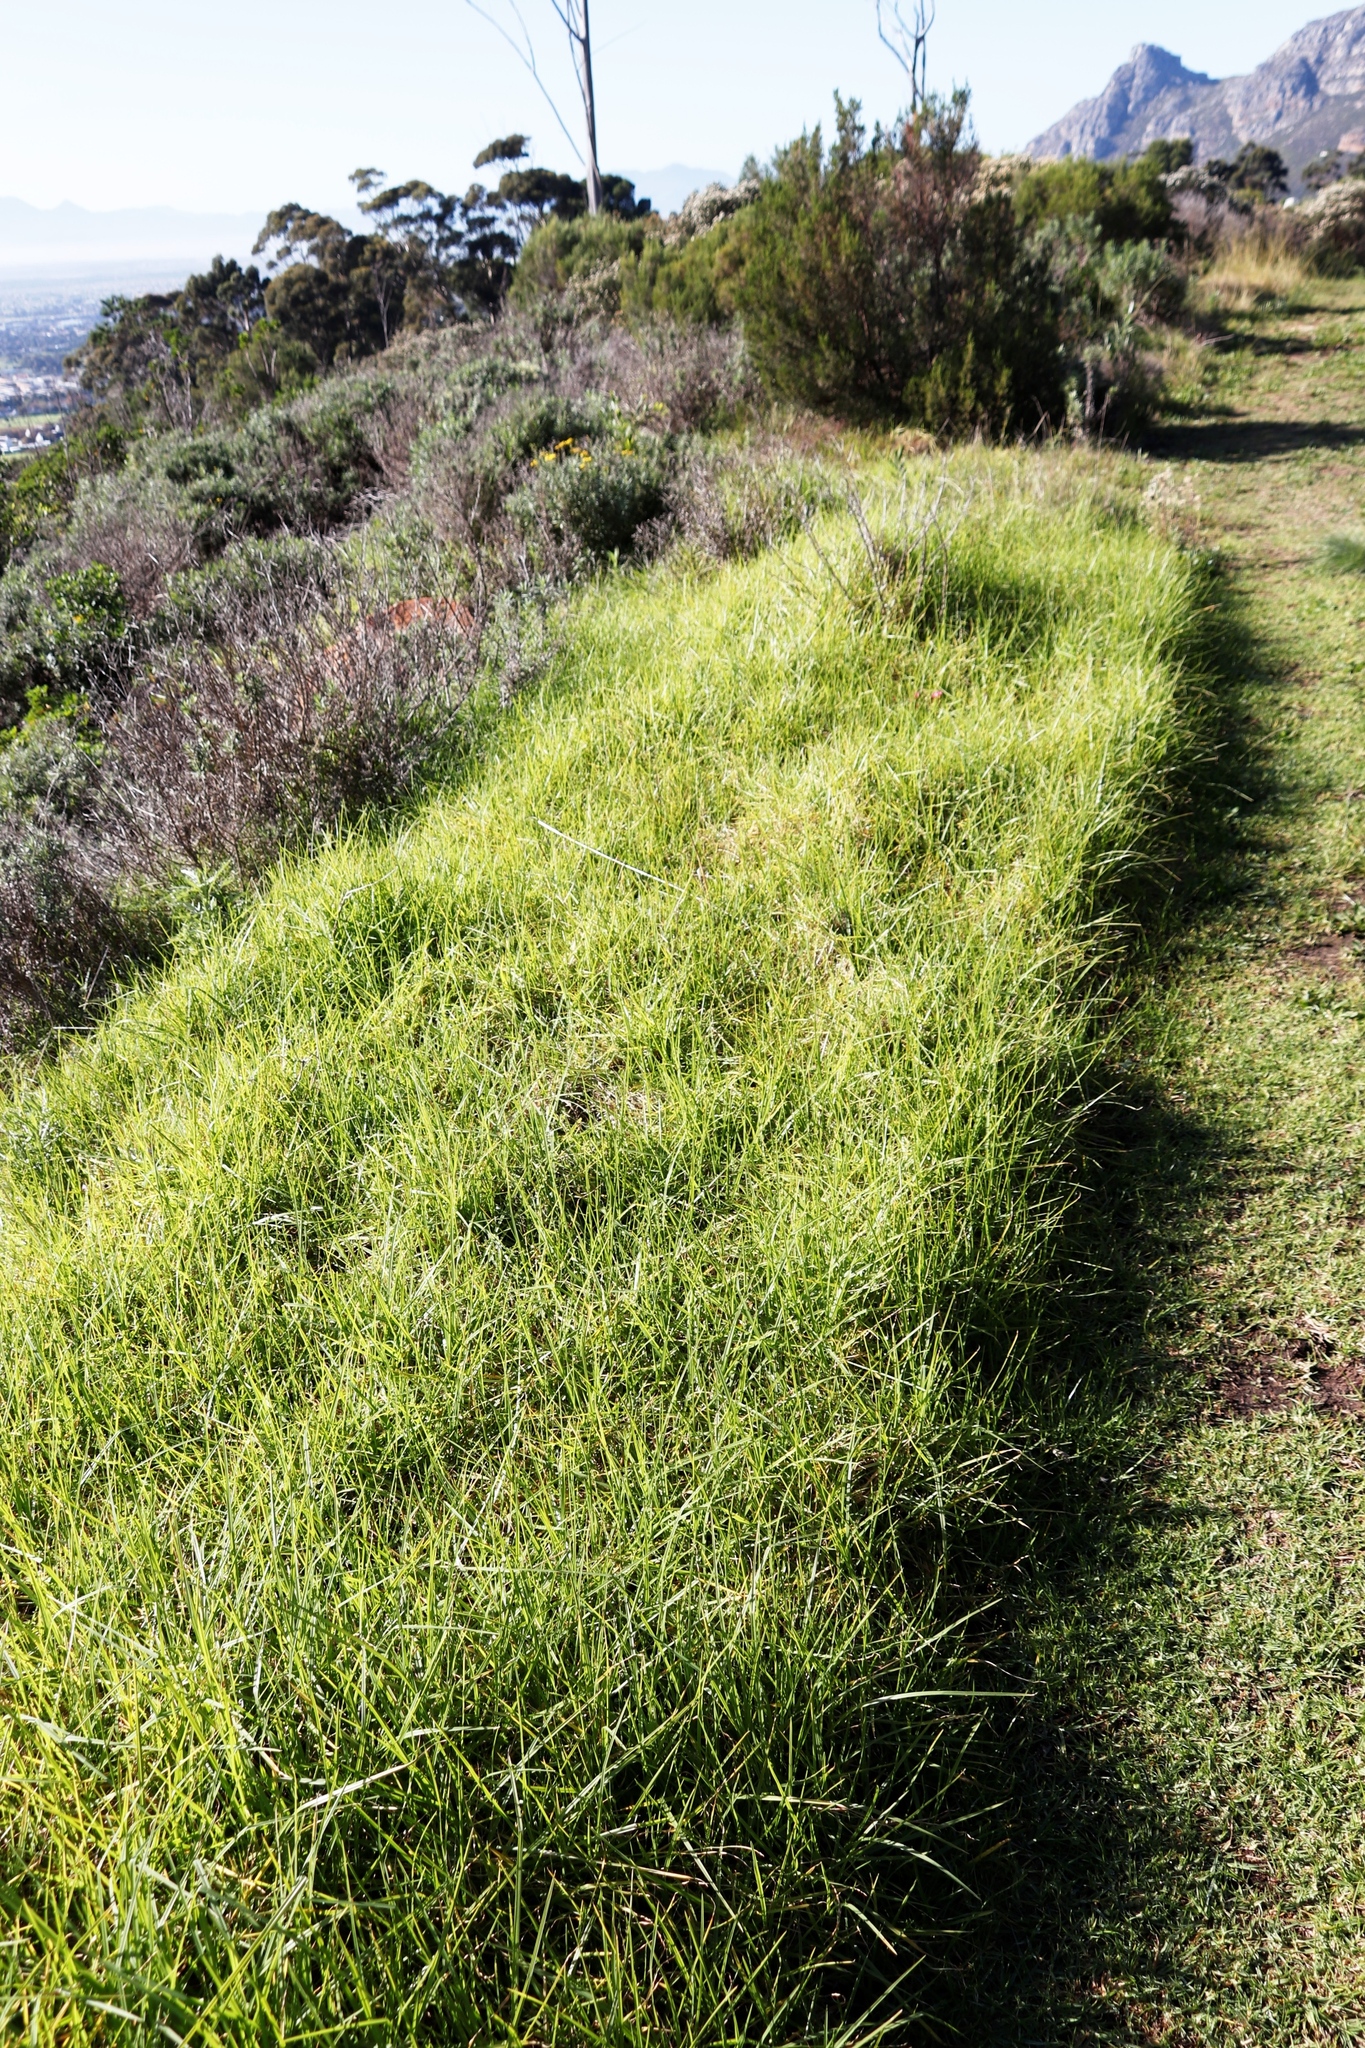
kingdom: Plantae
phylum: Tracheophyta
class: Liliopsida
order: Poales
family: Poaceae
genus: Cenchrus
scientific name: Cenchrus clandestinus
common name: Kikuyugrass
